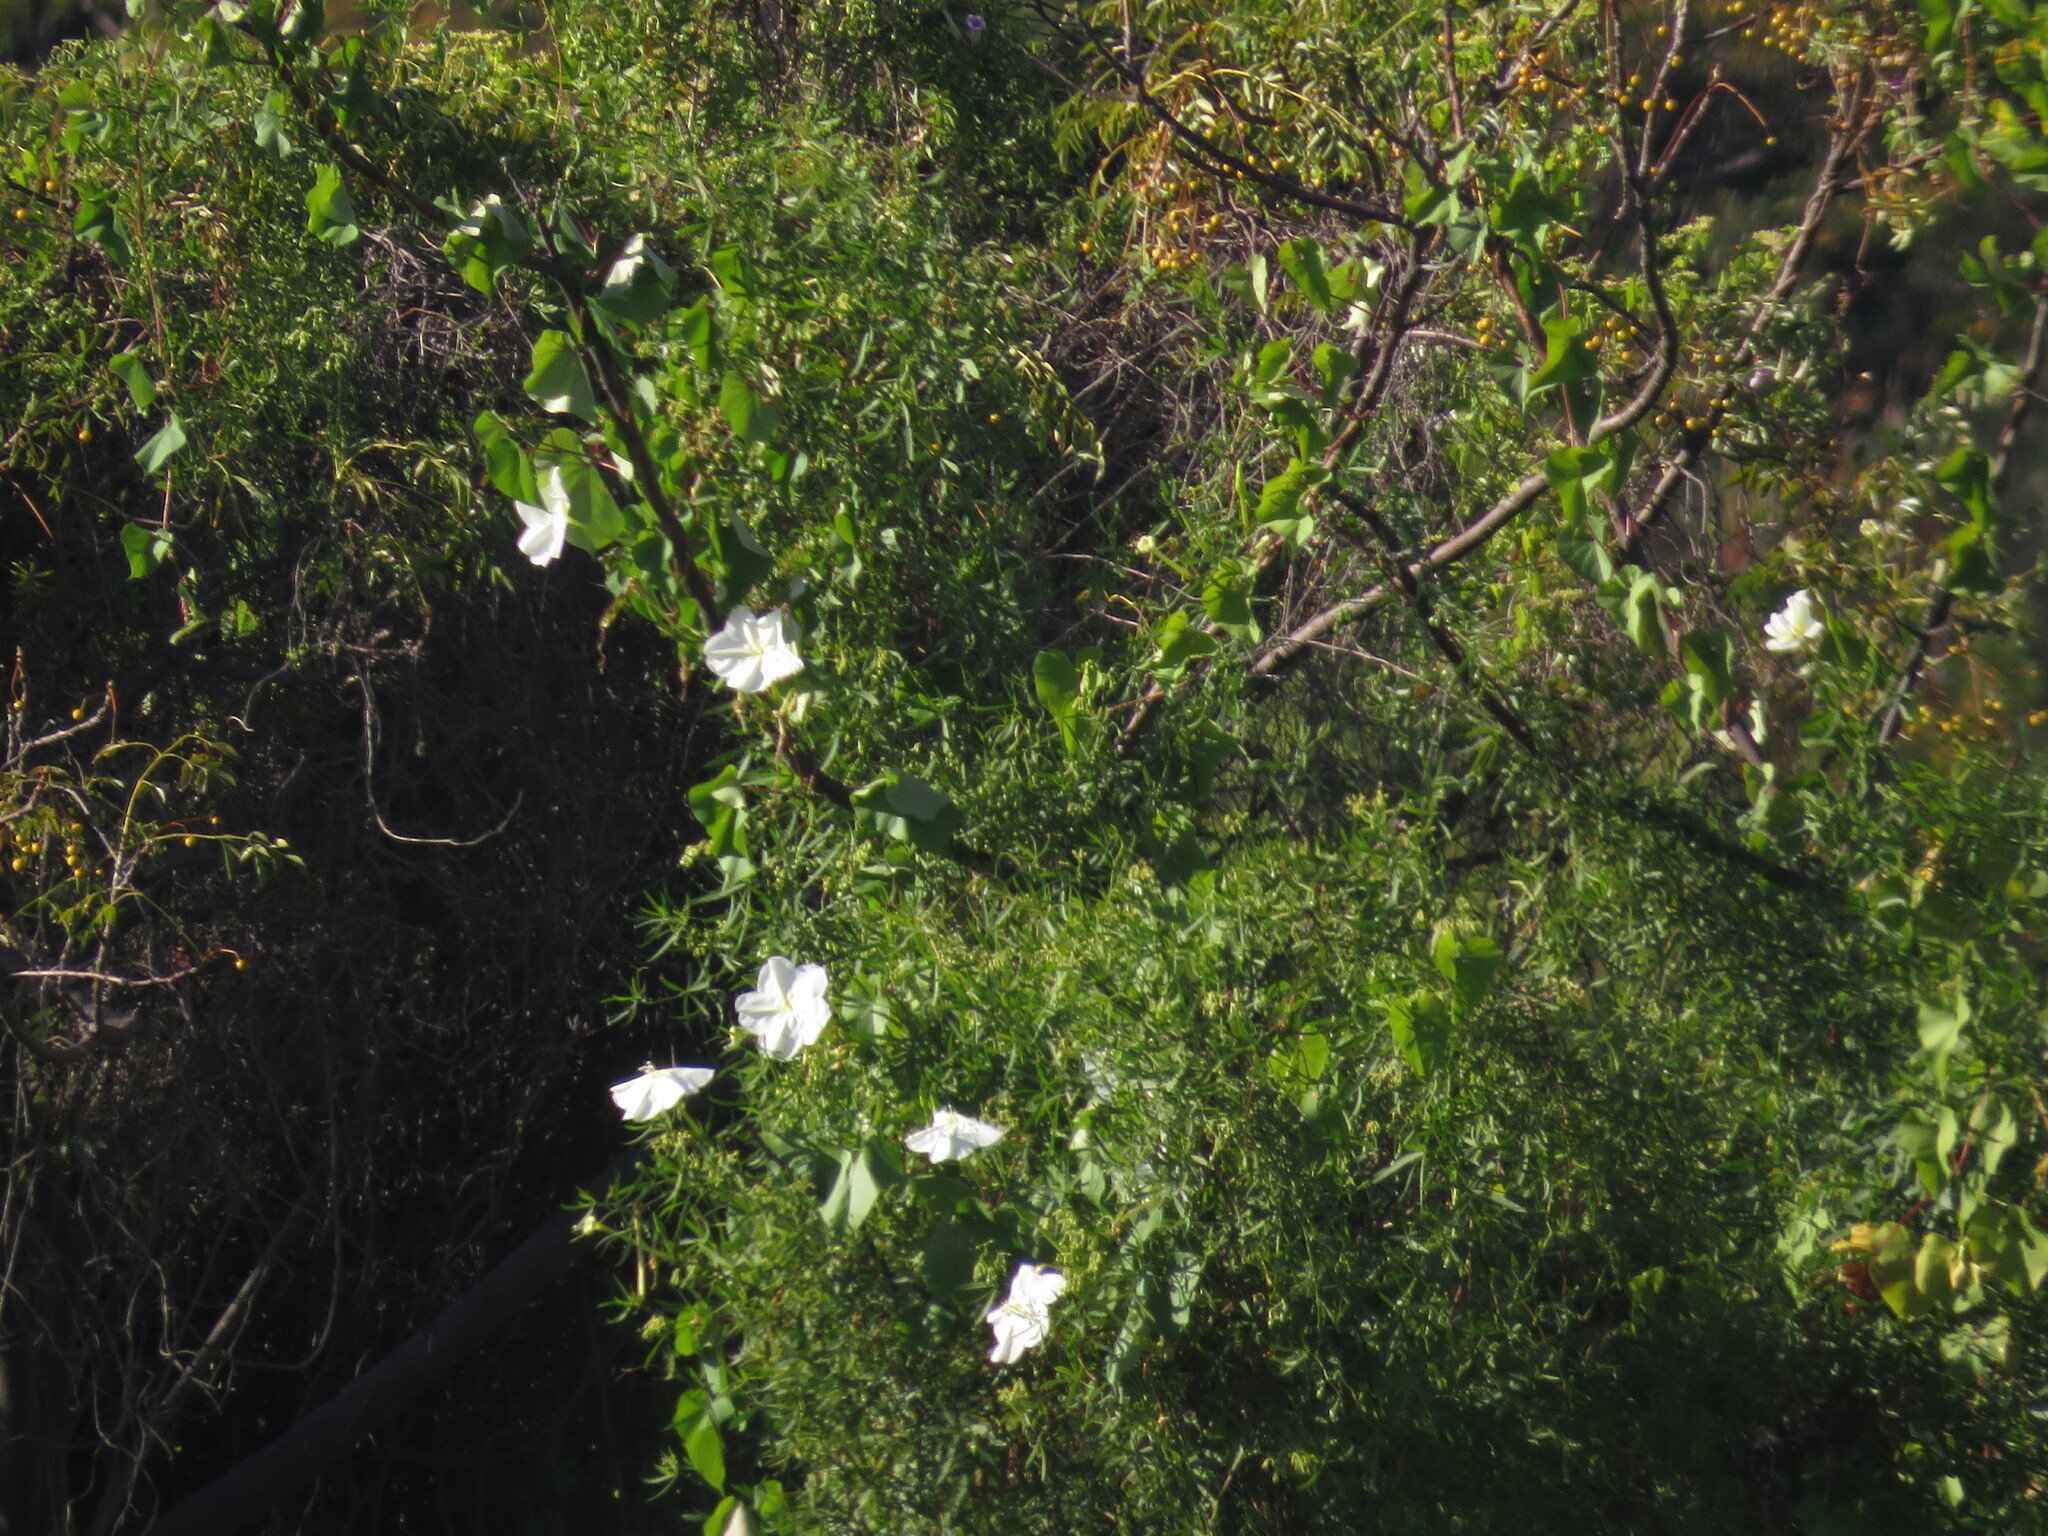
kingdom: Plantae
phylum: Tracheophyta
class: Magnoliopsida
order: Solanales
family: Convolvulaceae
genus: Ipomoea
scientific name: Ipomoea alba
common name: Moonflower
